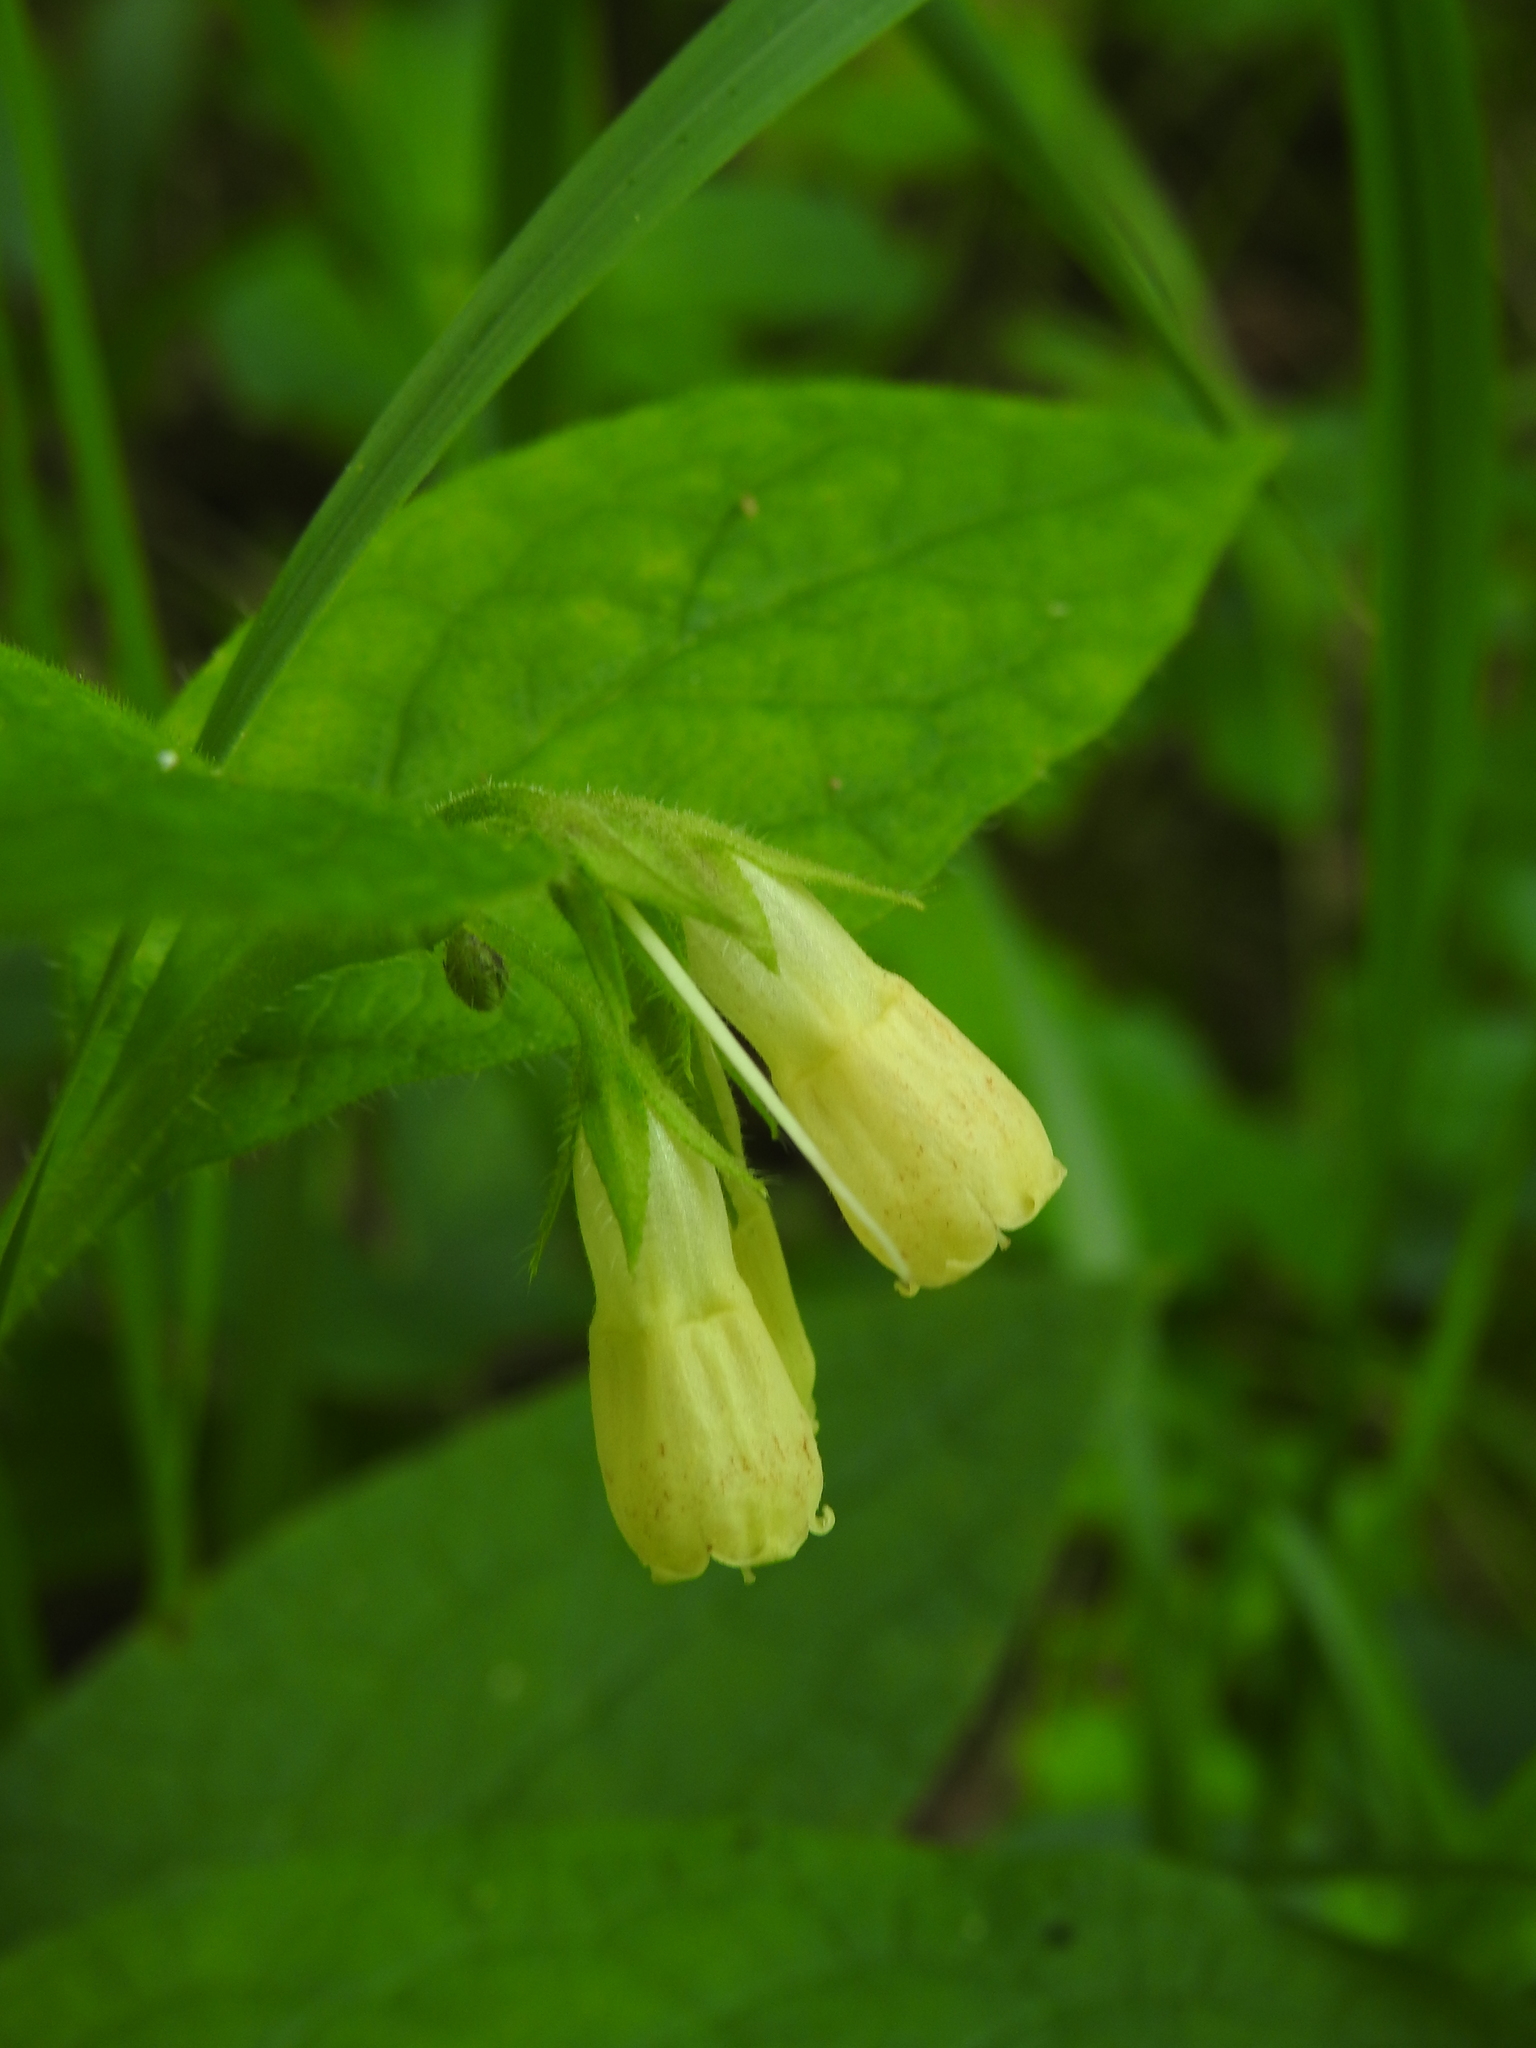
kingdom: Plantae
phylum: Tracheophyta
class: Magnoliopsida
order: Boraginales
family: Boraginaceae
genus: Symphytum
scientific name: Symphytum tuberosum
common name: Tuberous comfrey
